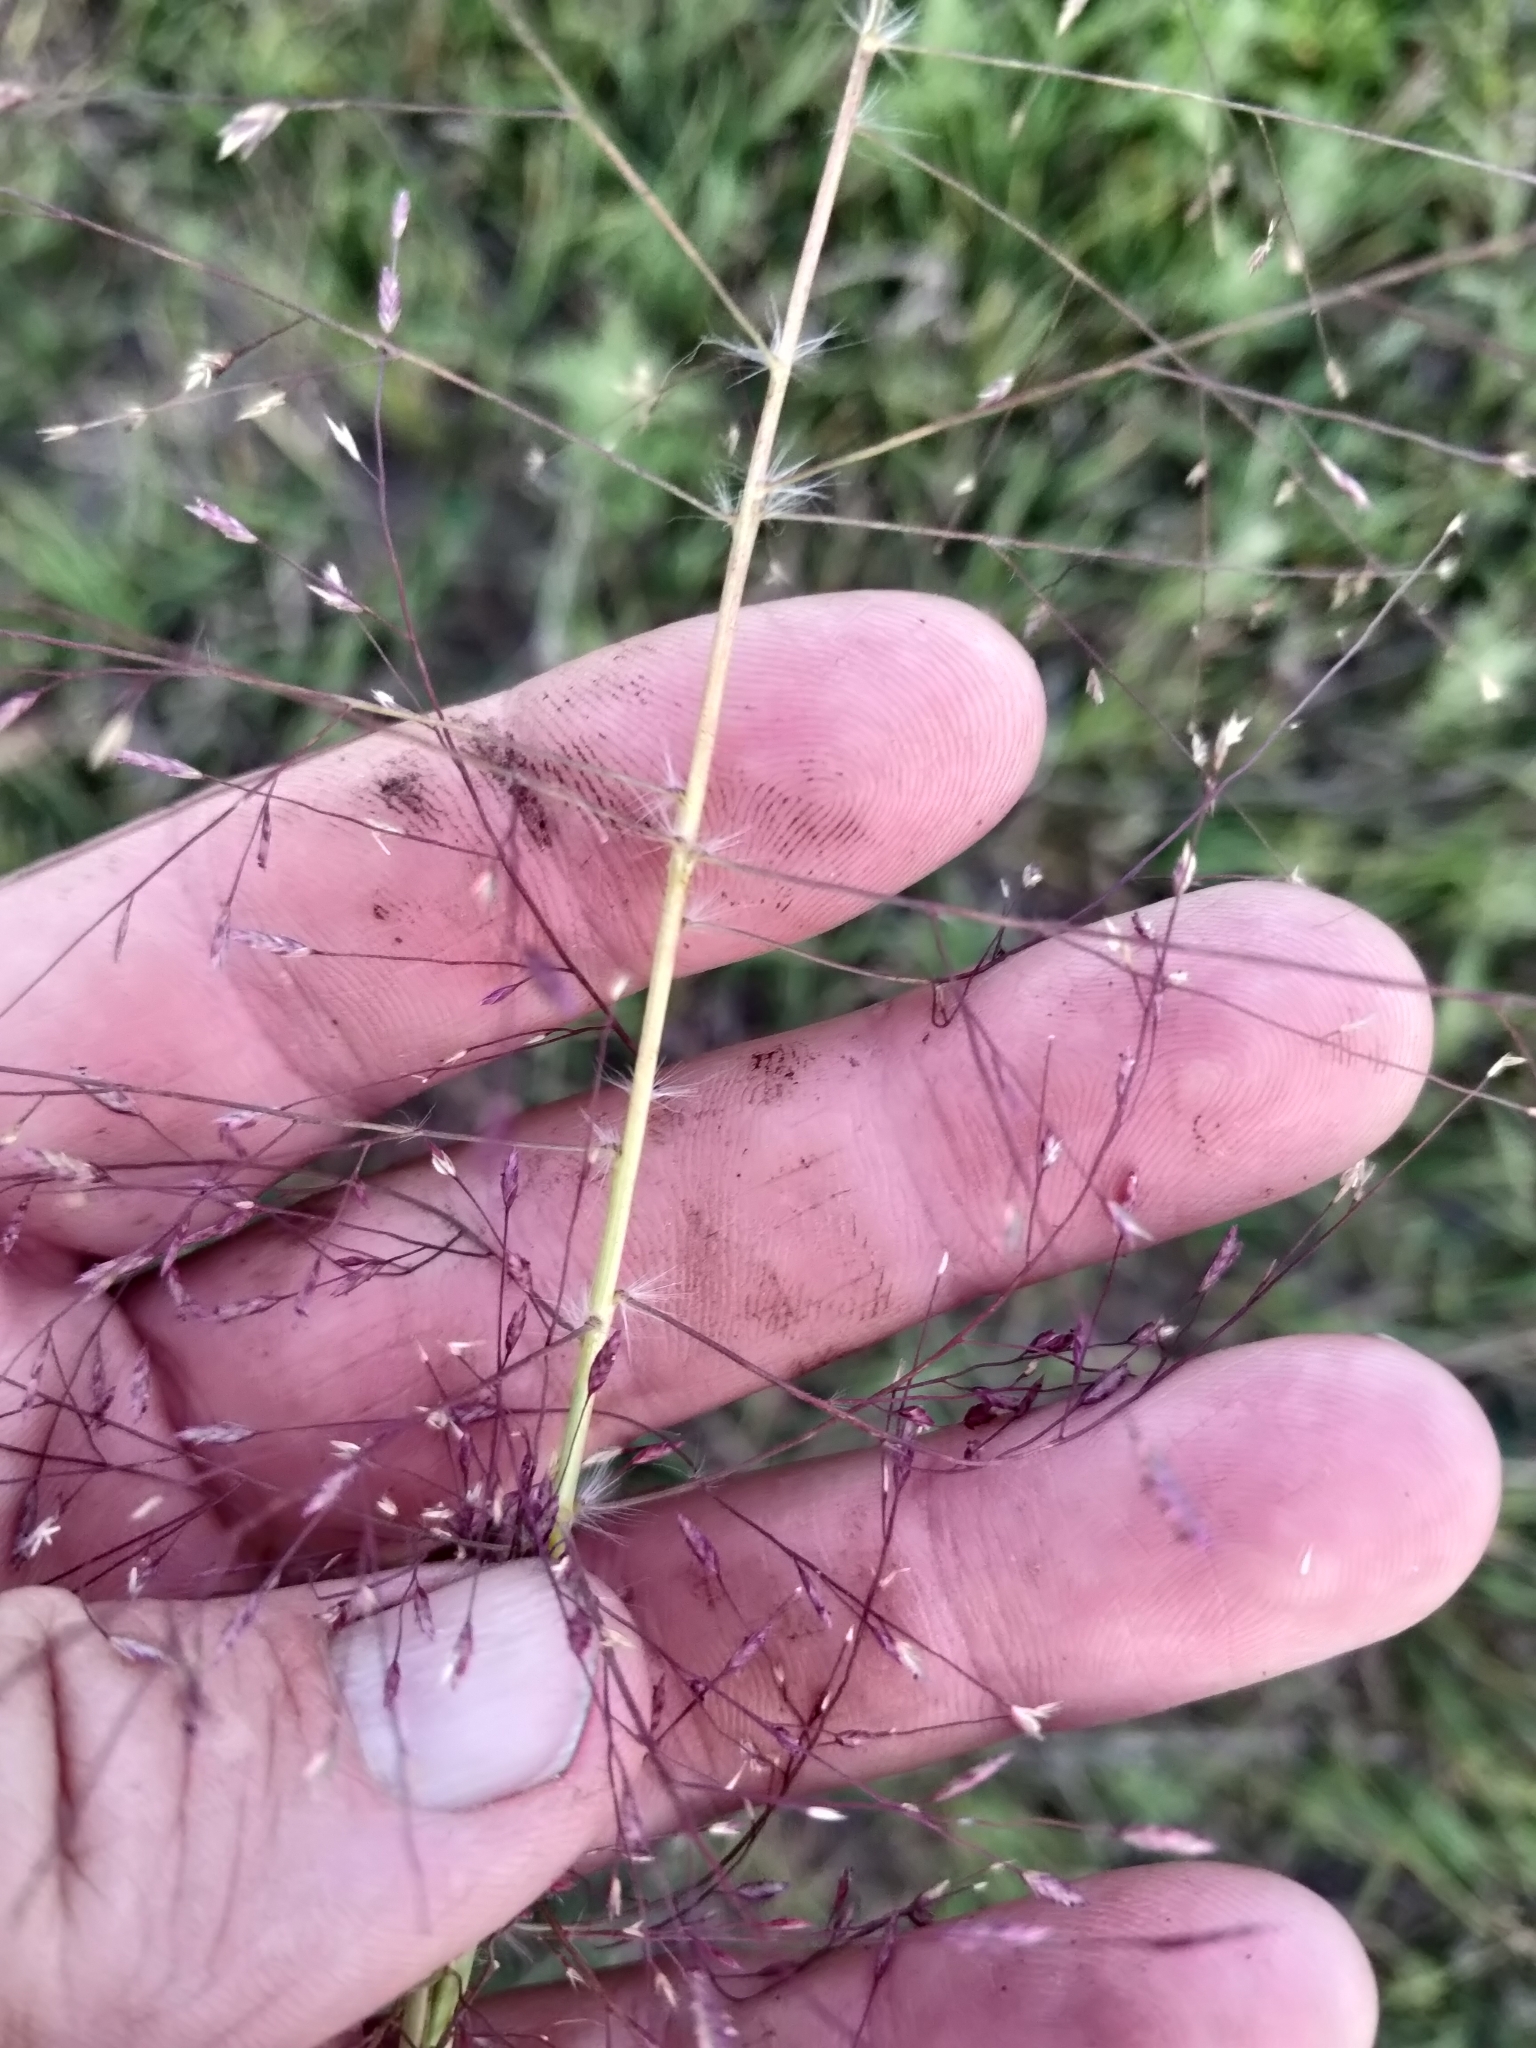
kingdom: Plantae
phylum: Tracheophyta
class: Liliopsida
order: Poales
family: Poaceae
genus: Eragrostis
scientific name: Eragrostis spectabilis
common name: Petticoat-climber
